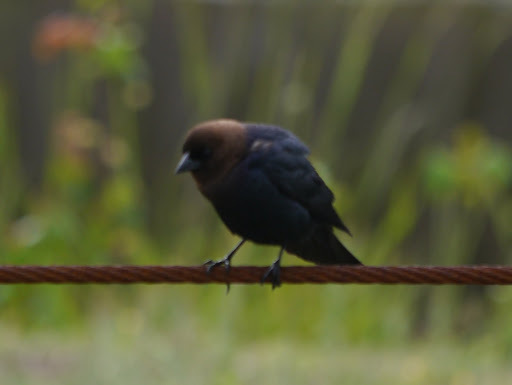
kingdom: Animalia
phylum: Chordata
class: Aves
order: Passeriformes
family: Icteridae
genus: Molothrus
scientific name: Molothrus ater
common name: Brown-headed cowbird
